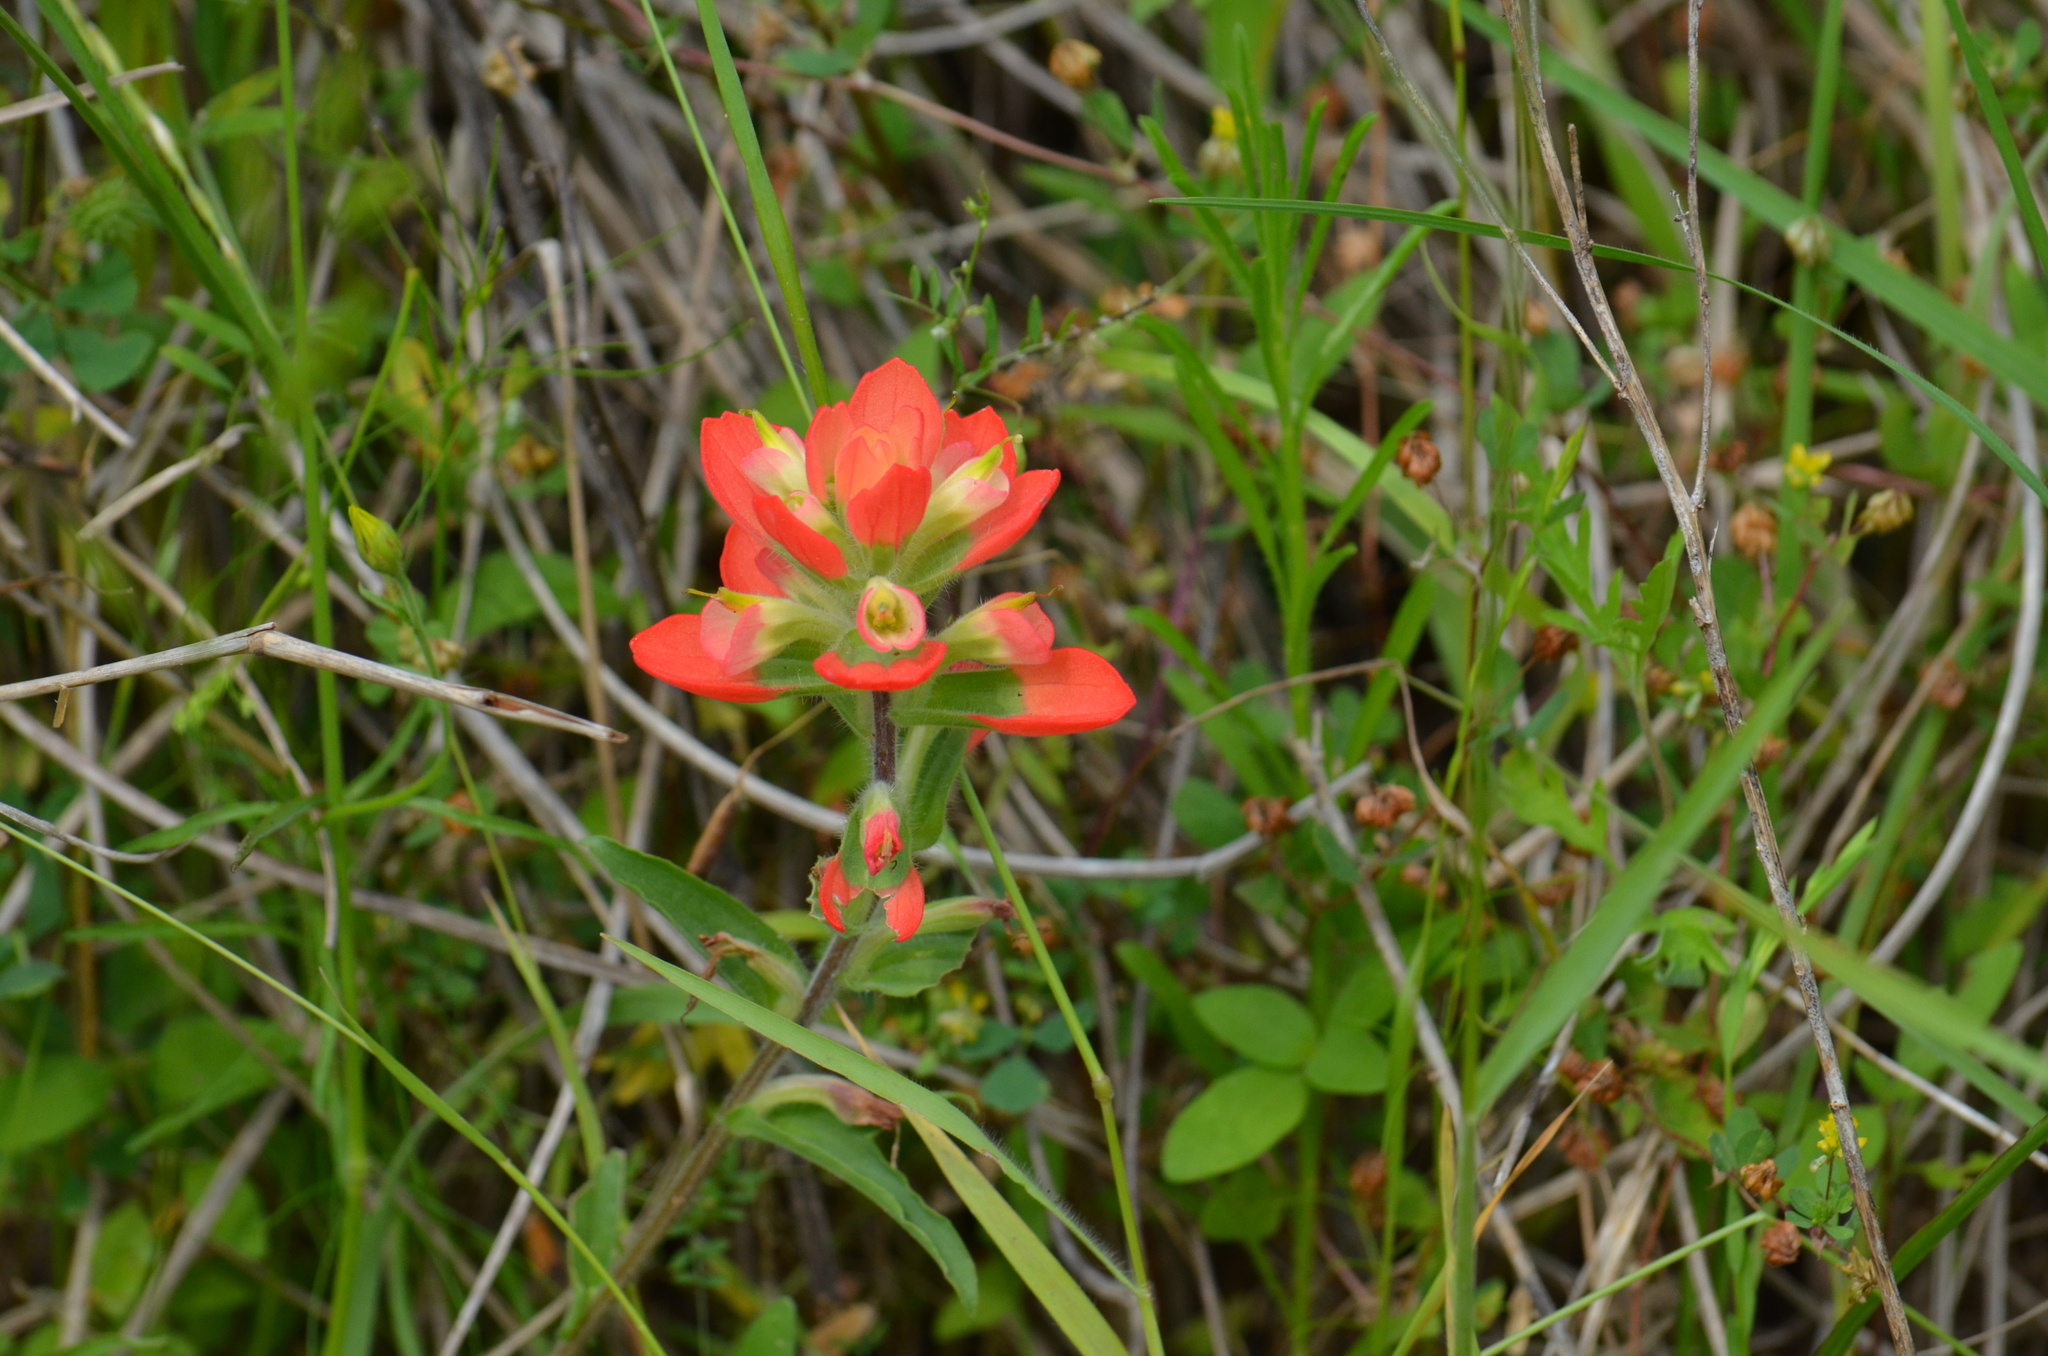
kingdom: Plantae
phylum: Tracheophyta
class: Magnoliopsida
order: Lamiales
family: Orobanchaceae
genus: Castilleja
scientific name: Castilleja indivisa
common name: Texas paintbrush
